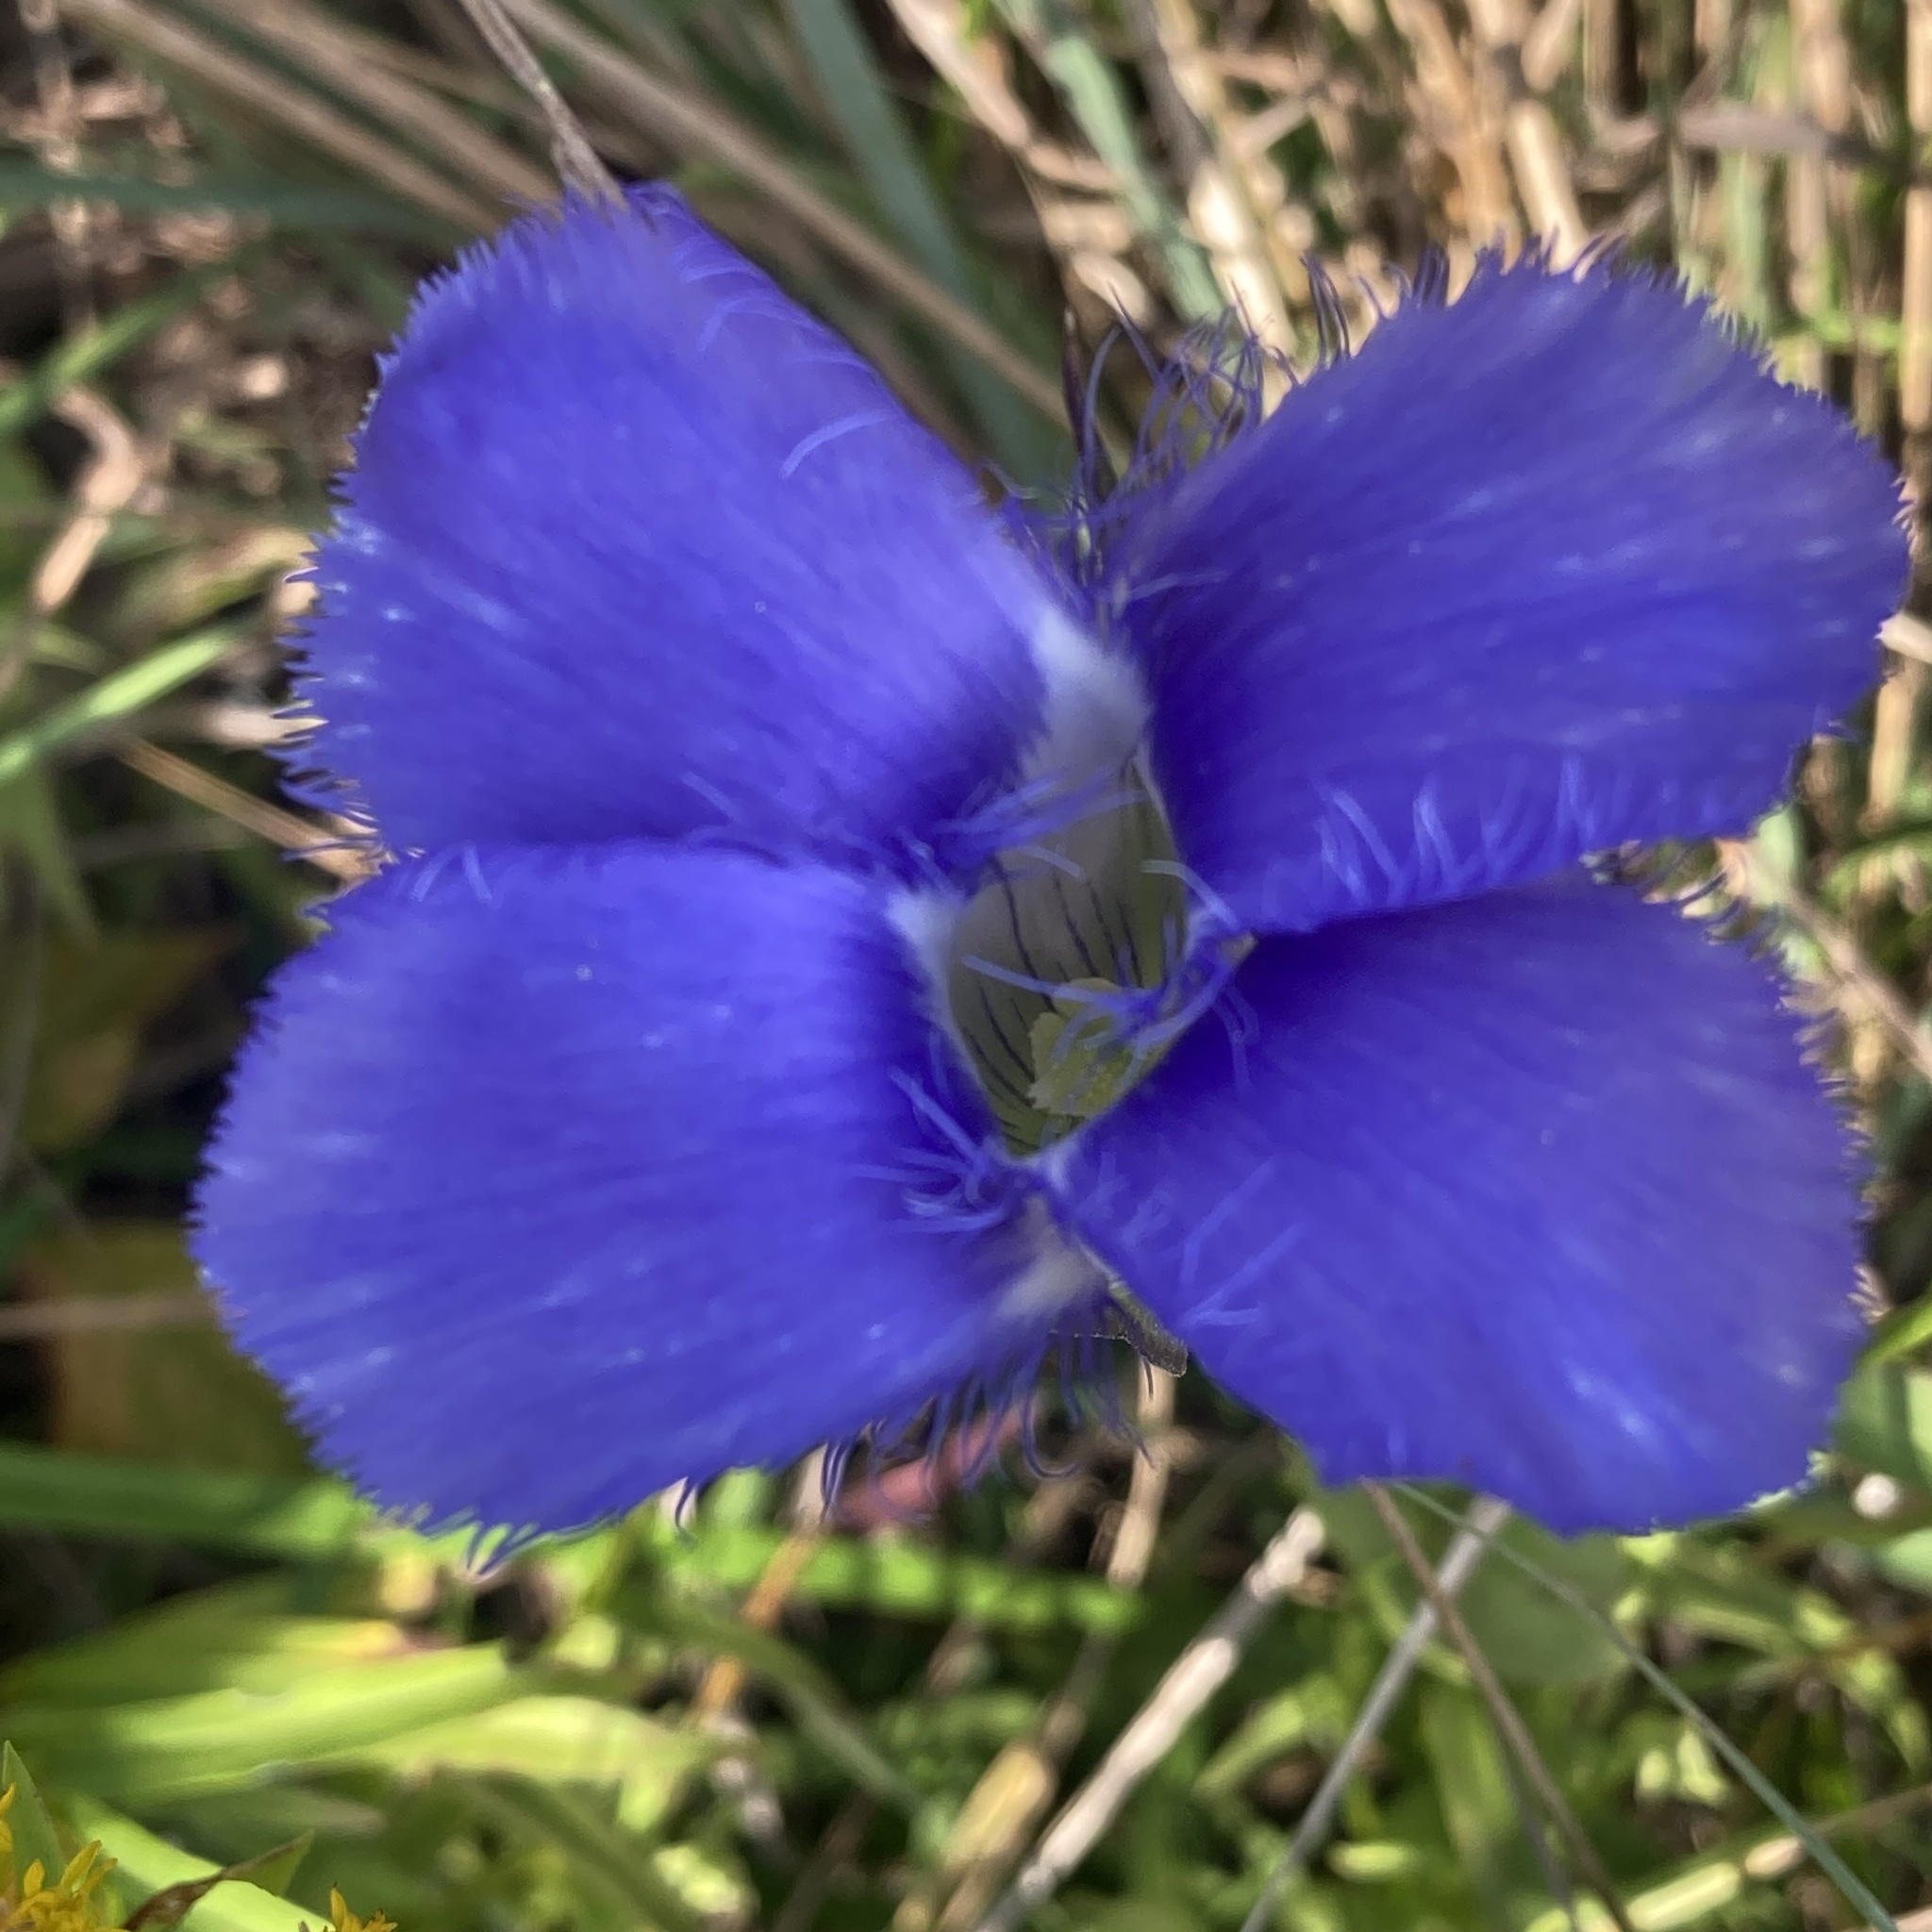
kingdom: Plantae
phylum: Tracheophyta
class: Magnoliopsida
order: Gentianales
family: Gentianaceae
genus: Gentianopsis
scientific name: Gentianopsis virgata
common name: Lesser fringed-gentian
